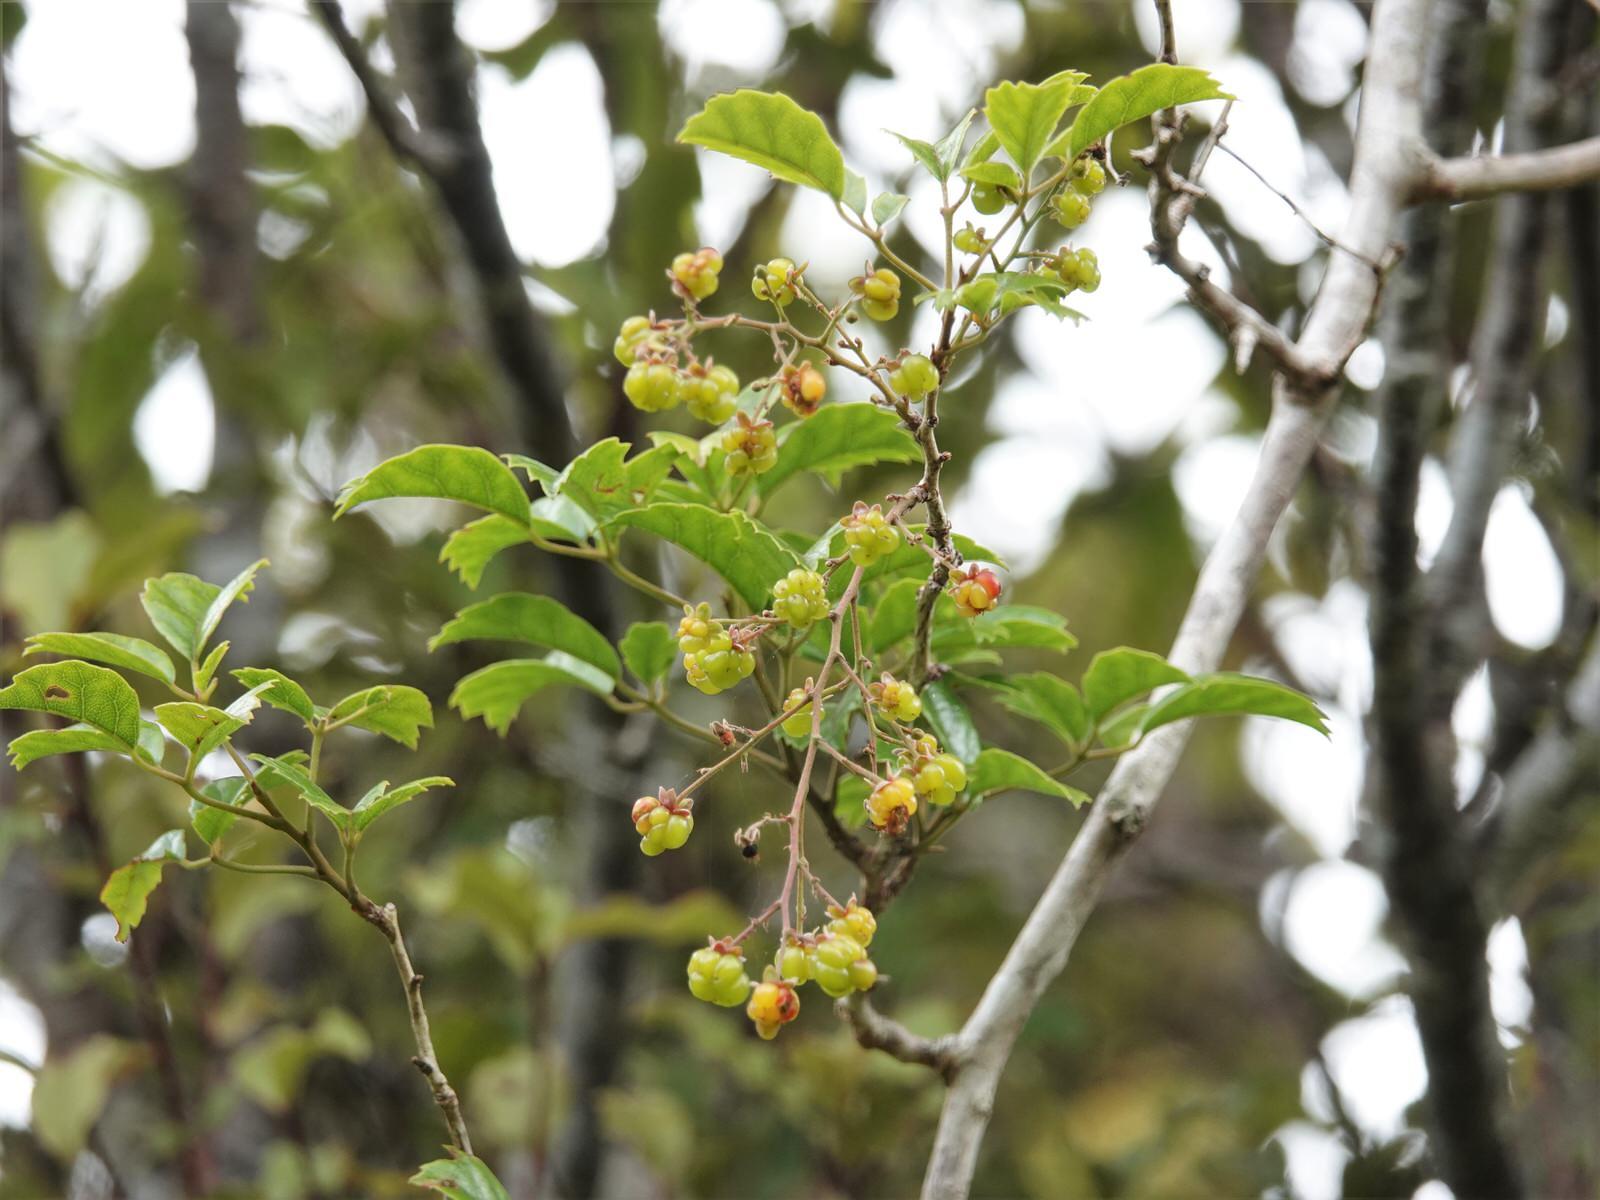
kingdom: Plantae
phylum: Tracheophyta
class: Magnoliopsida
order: Rosales
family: Rosaceae
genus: Rubus
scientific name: Rubus australis
